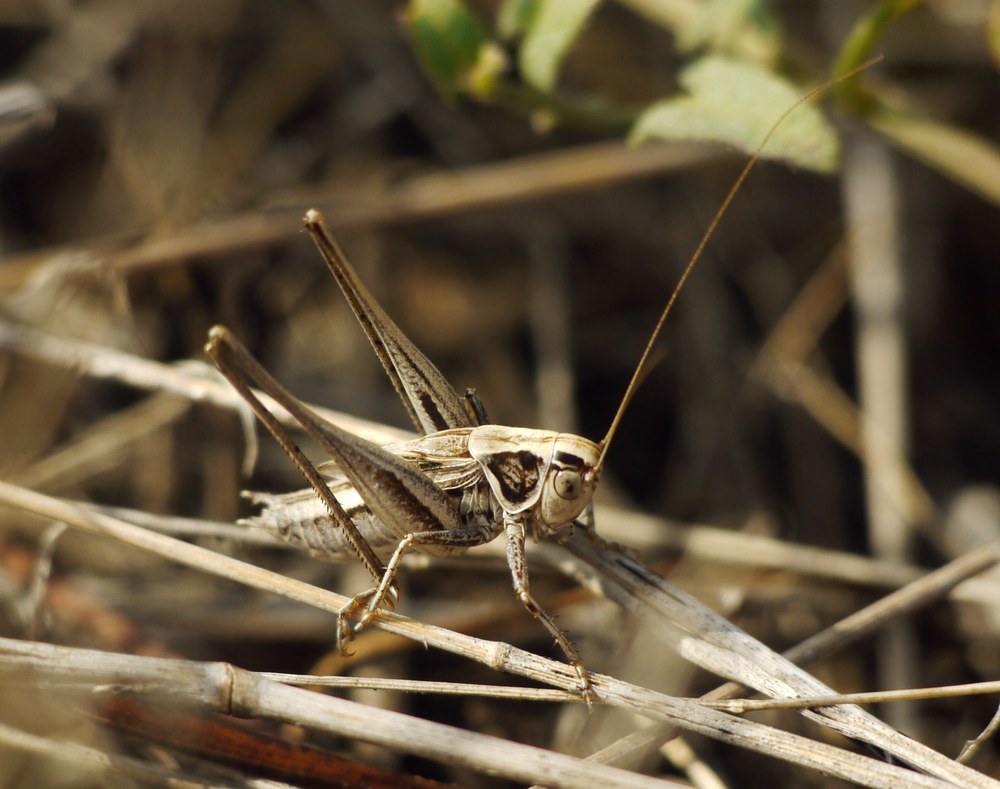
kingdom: Animalia
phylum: Arthropoda
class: Insecta
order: Orthoptera
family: Tettigoniidae
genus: Tessellana
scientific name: Tessellana veyseli
